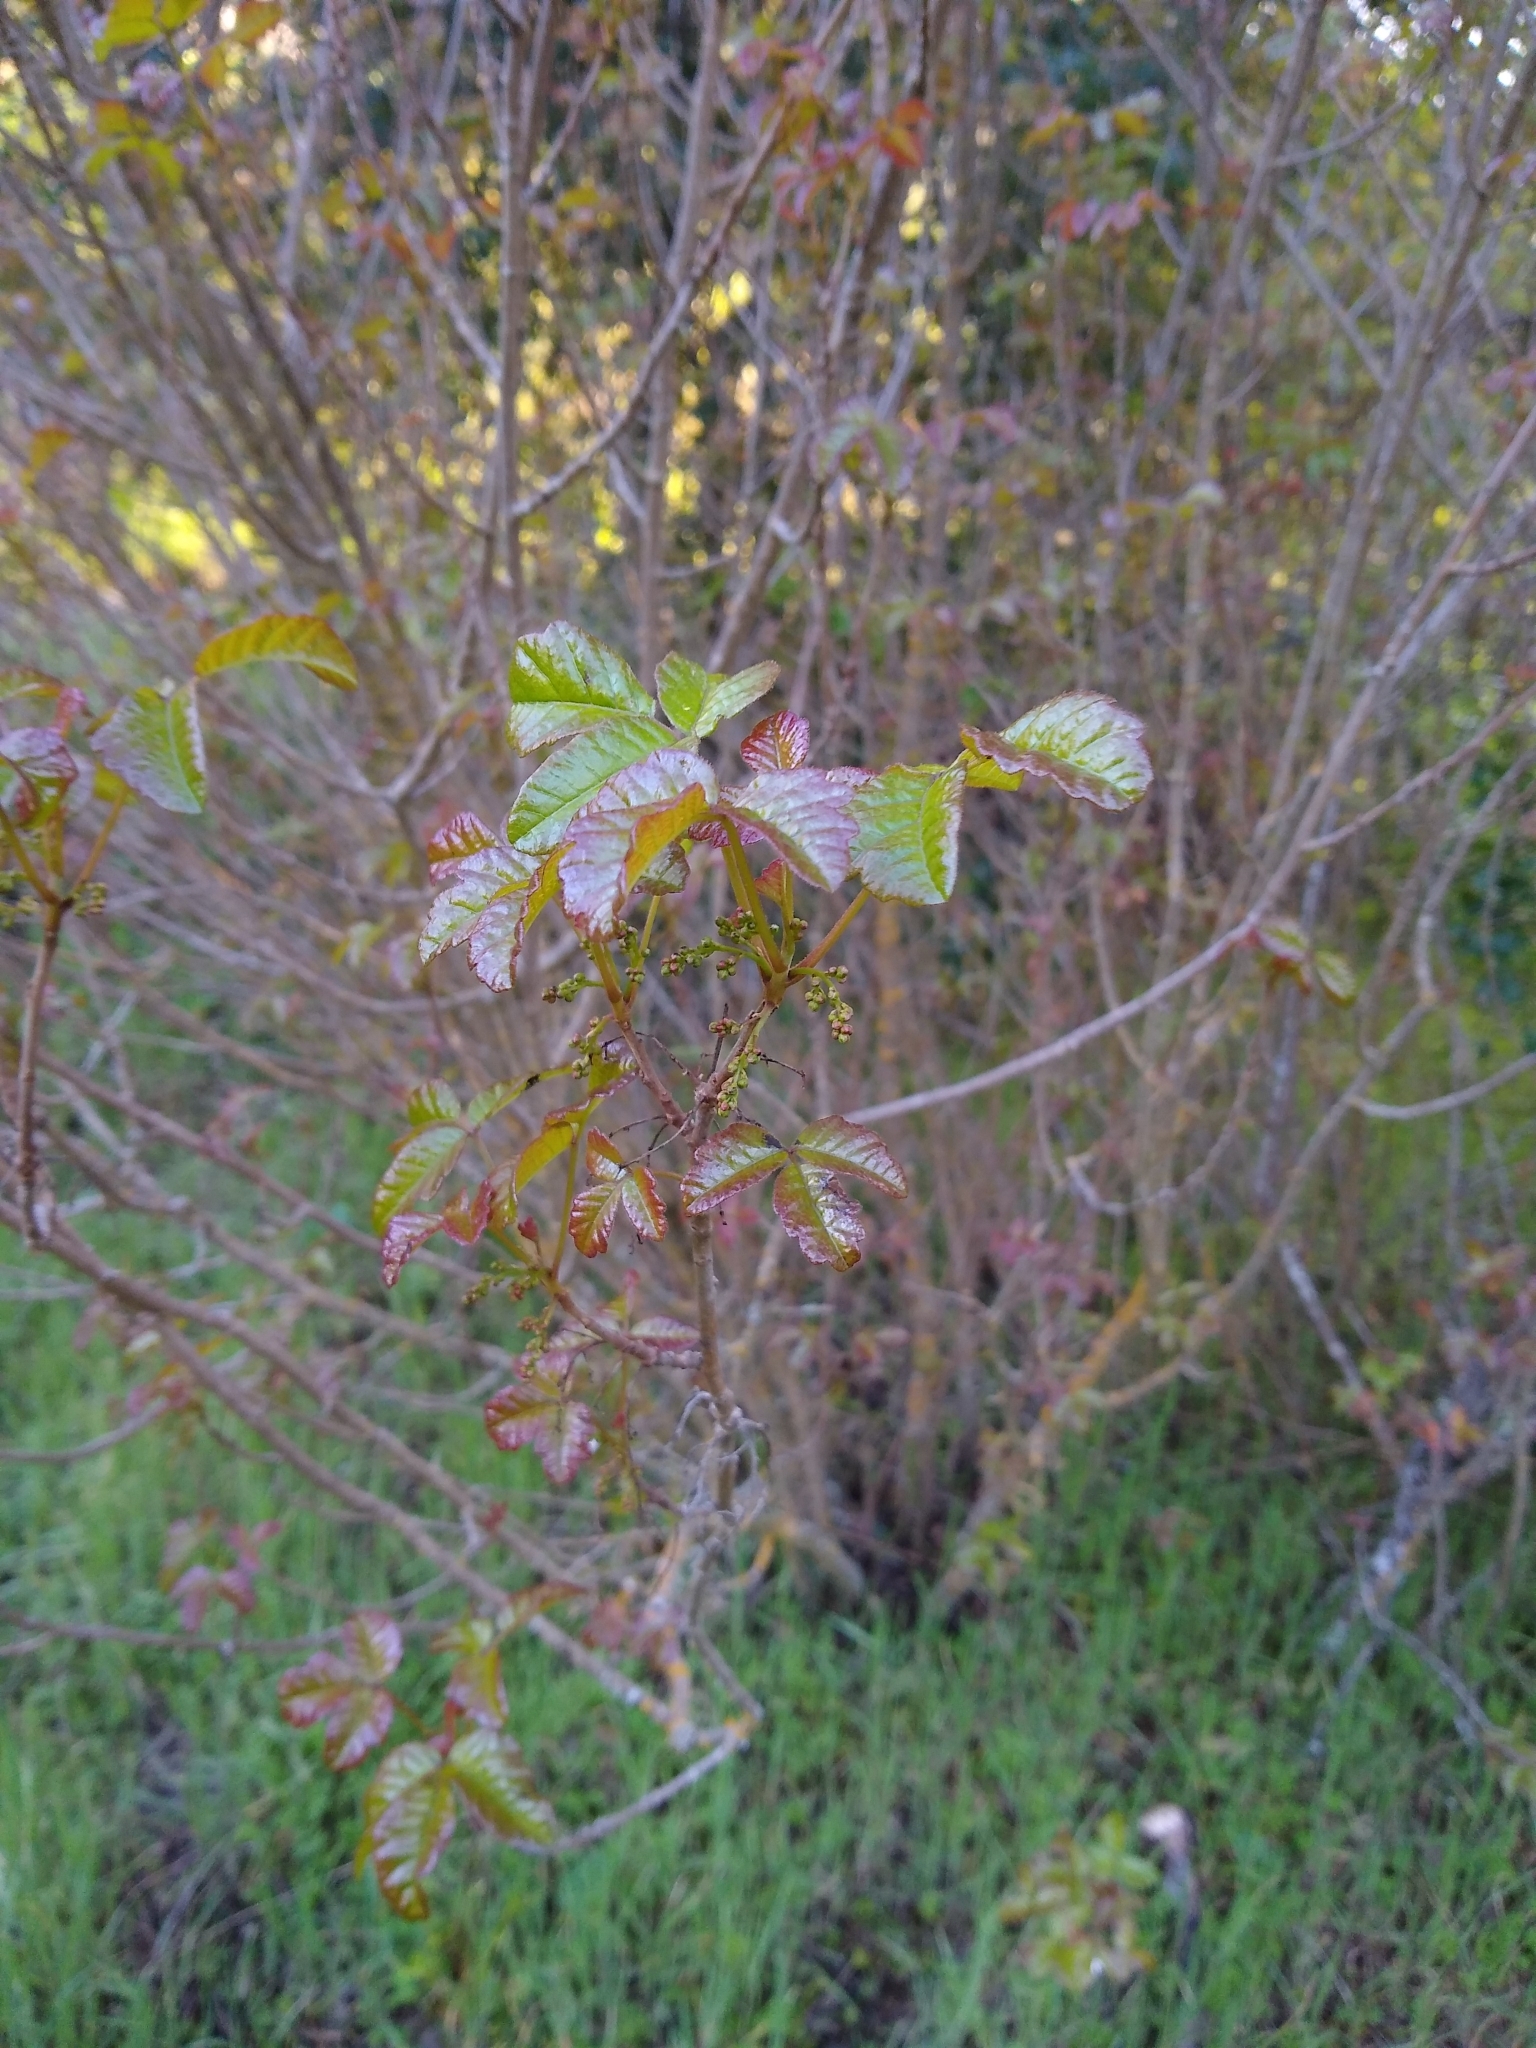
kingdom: Plantae
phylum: Tracheophyta
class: Magnoliopsida
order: Sapindales
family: Anacardiaceae
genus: Toxicodendron
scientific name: Toxicodendron diversilobum
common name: Pacific poison-oak
